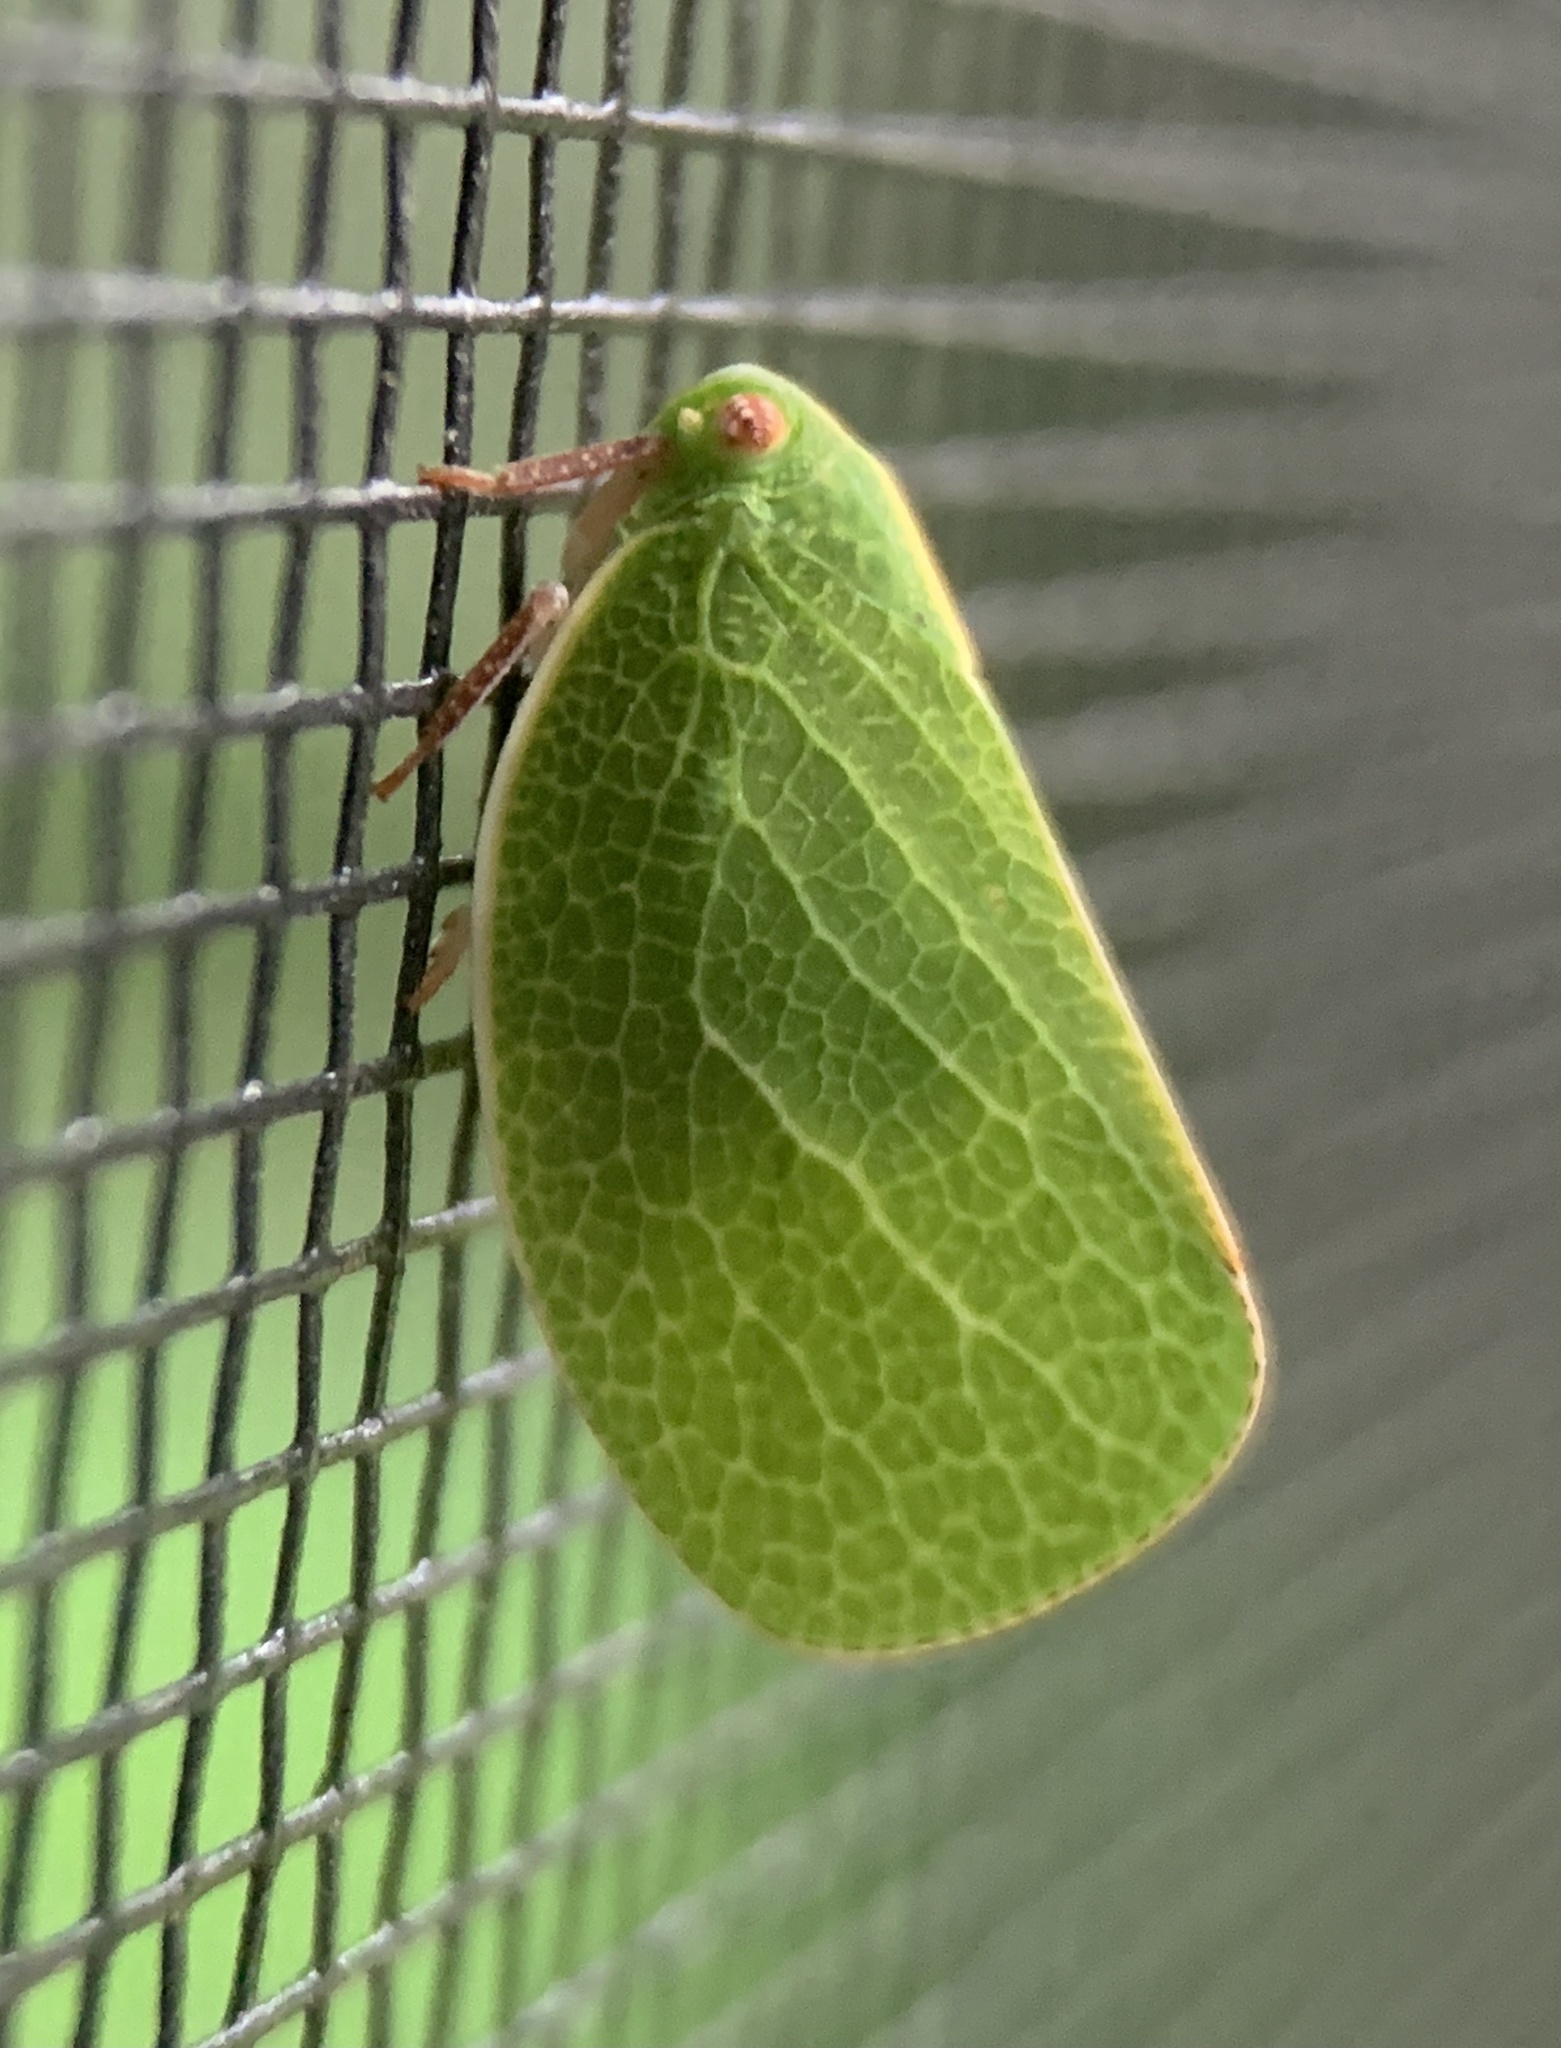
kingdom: Animalia
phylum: Arthropoda
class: Insecta
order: Hemiptera
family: Acanaloniidae
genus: Acanalonia
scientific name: Acanalonia servillei
